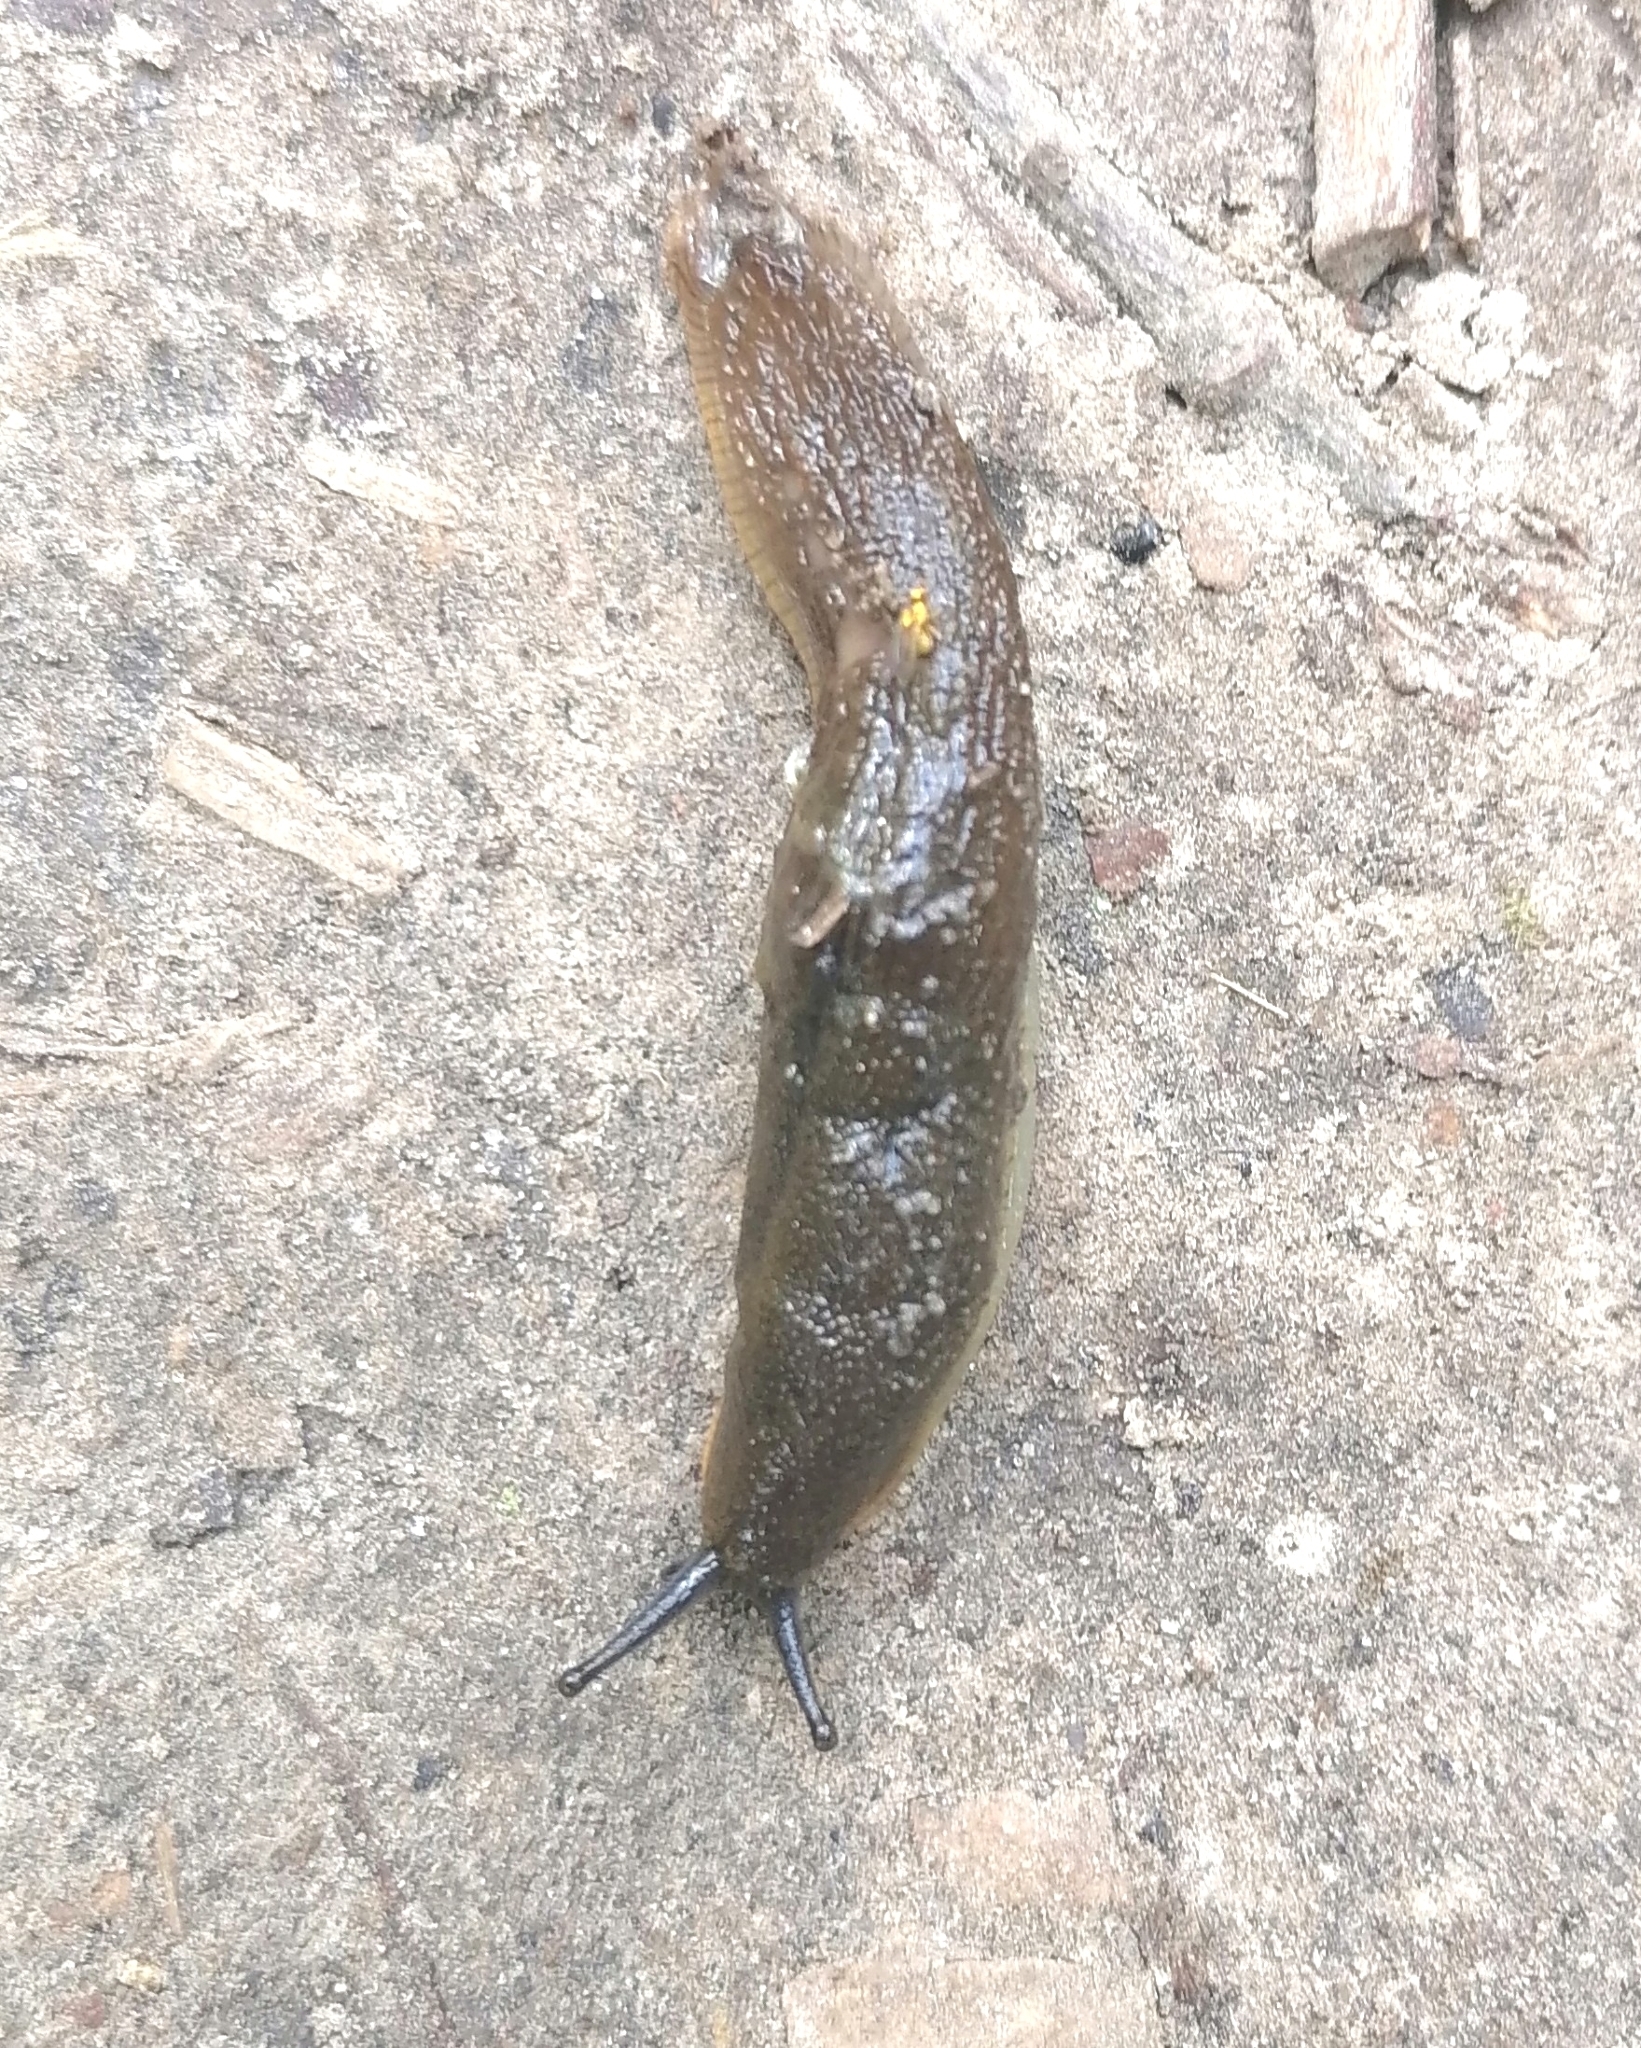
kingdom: Animalia
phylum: Mollusca
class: Gastropoda
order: Stylommatophora
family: Arionidae
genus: Arion
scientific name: Arion vulgaris
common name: Lusitanian slug
